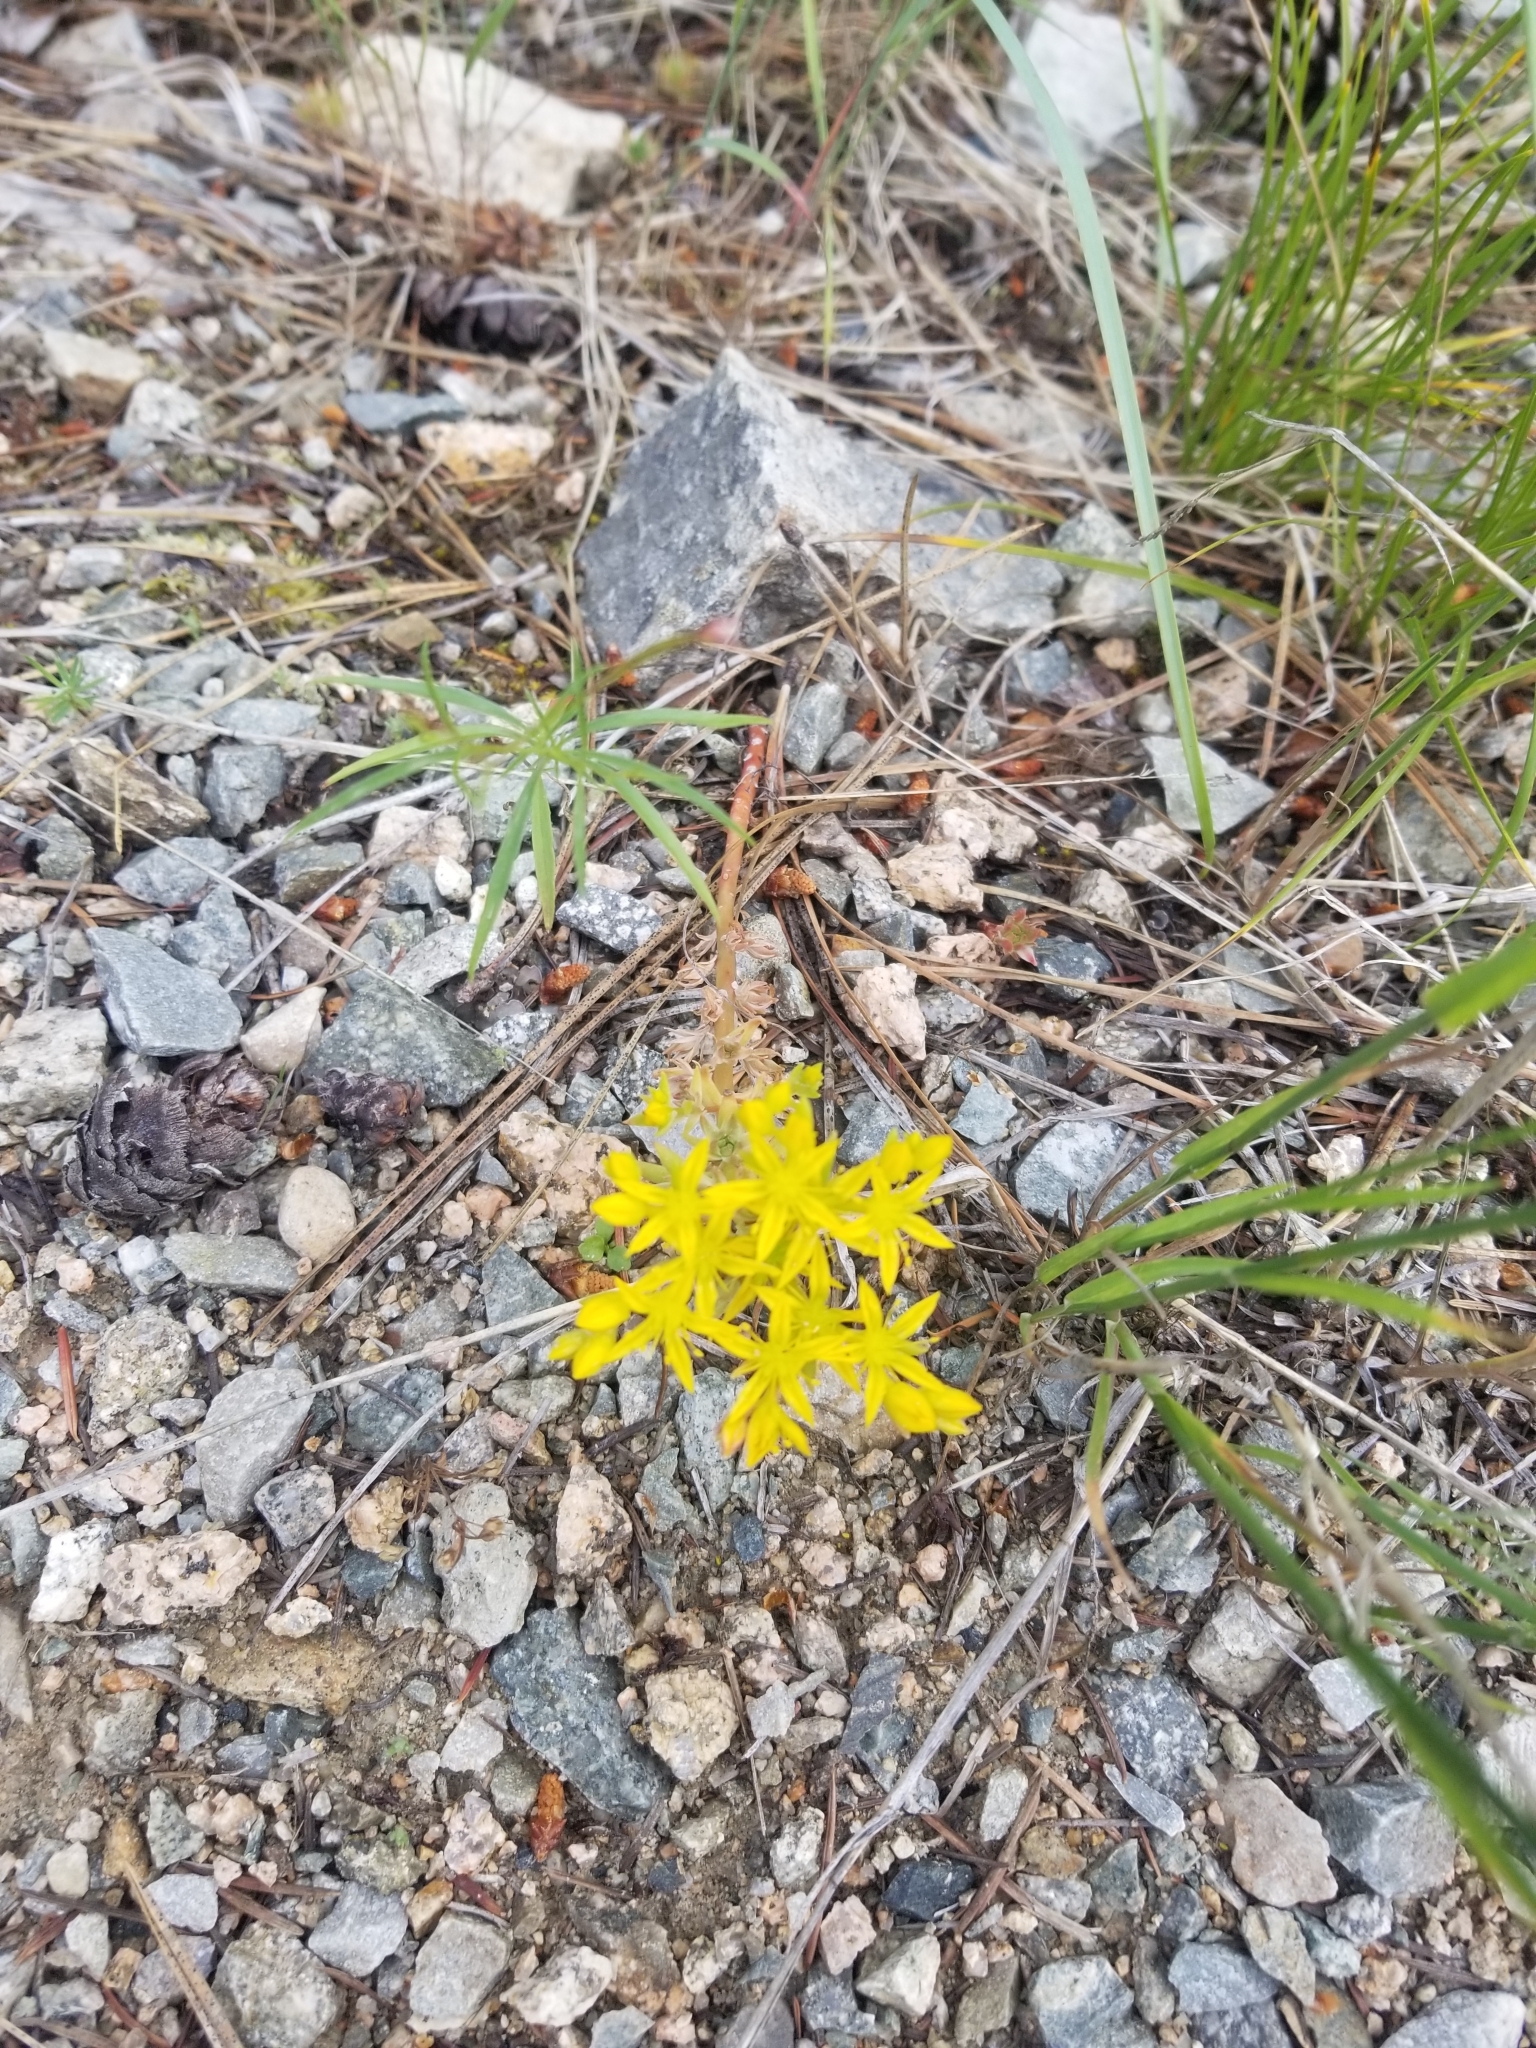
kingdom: Plantae
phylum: Tracheophyta
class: Magnoliopsida
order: Saxifragales
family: Crassulaceae
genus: Sedum
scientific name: Sedum stenopetalum
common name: Narrow-petaled stonecrop
